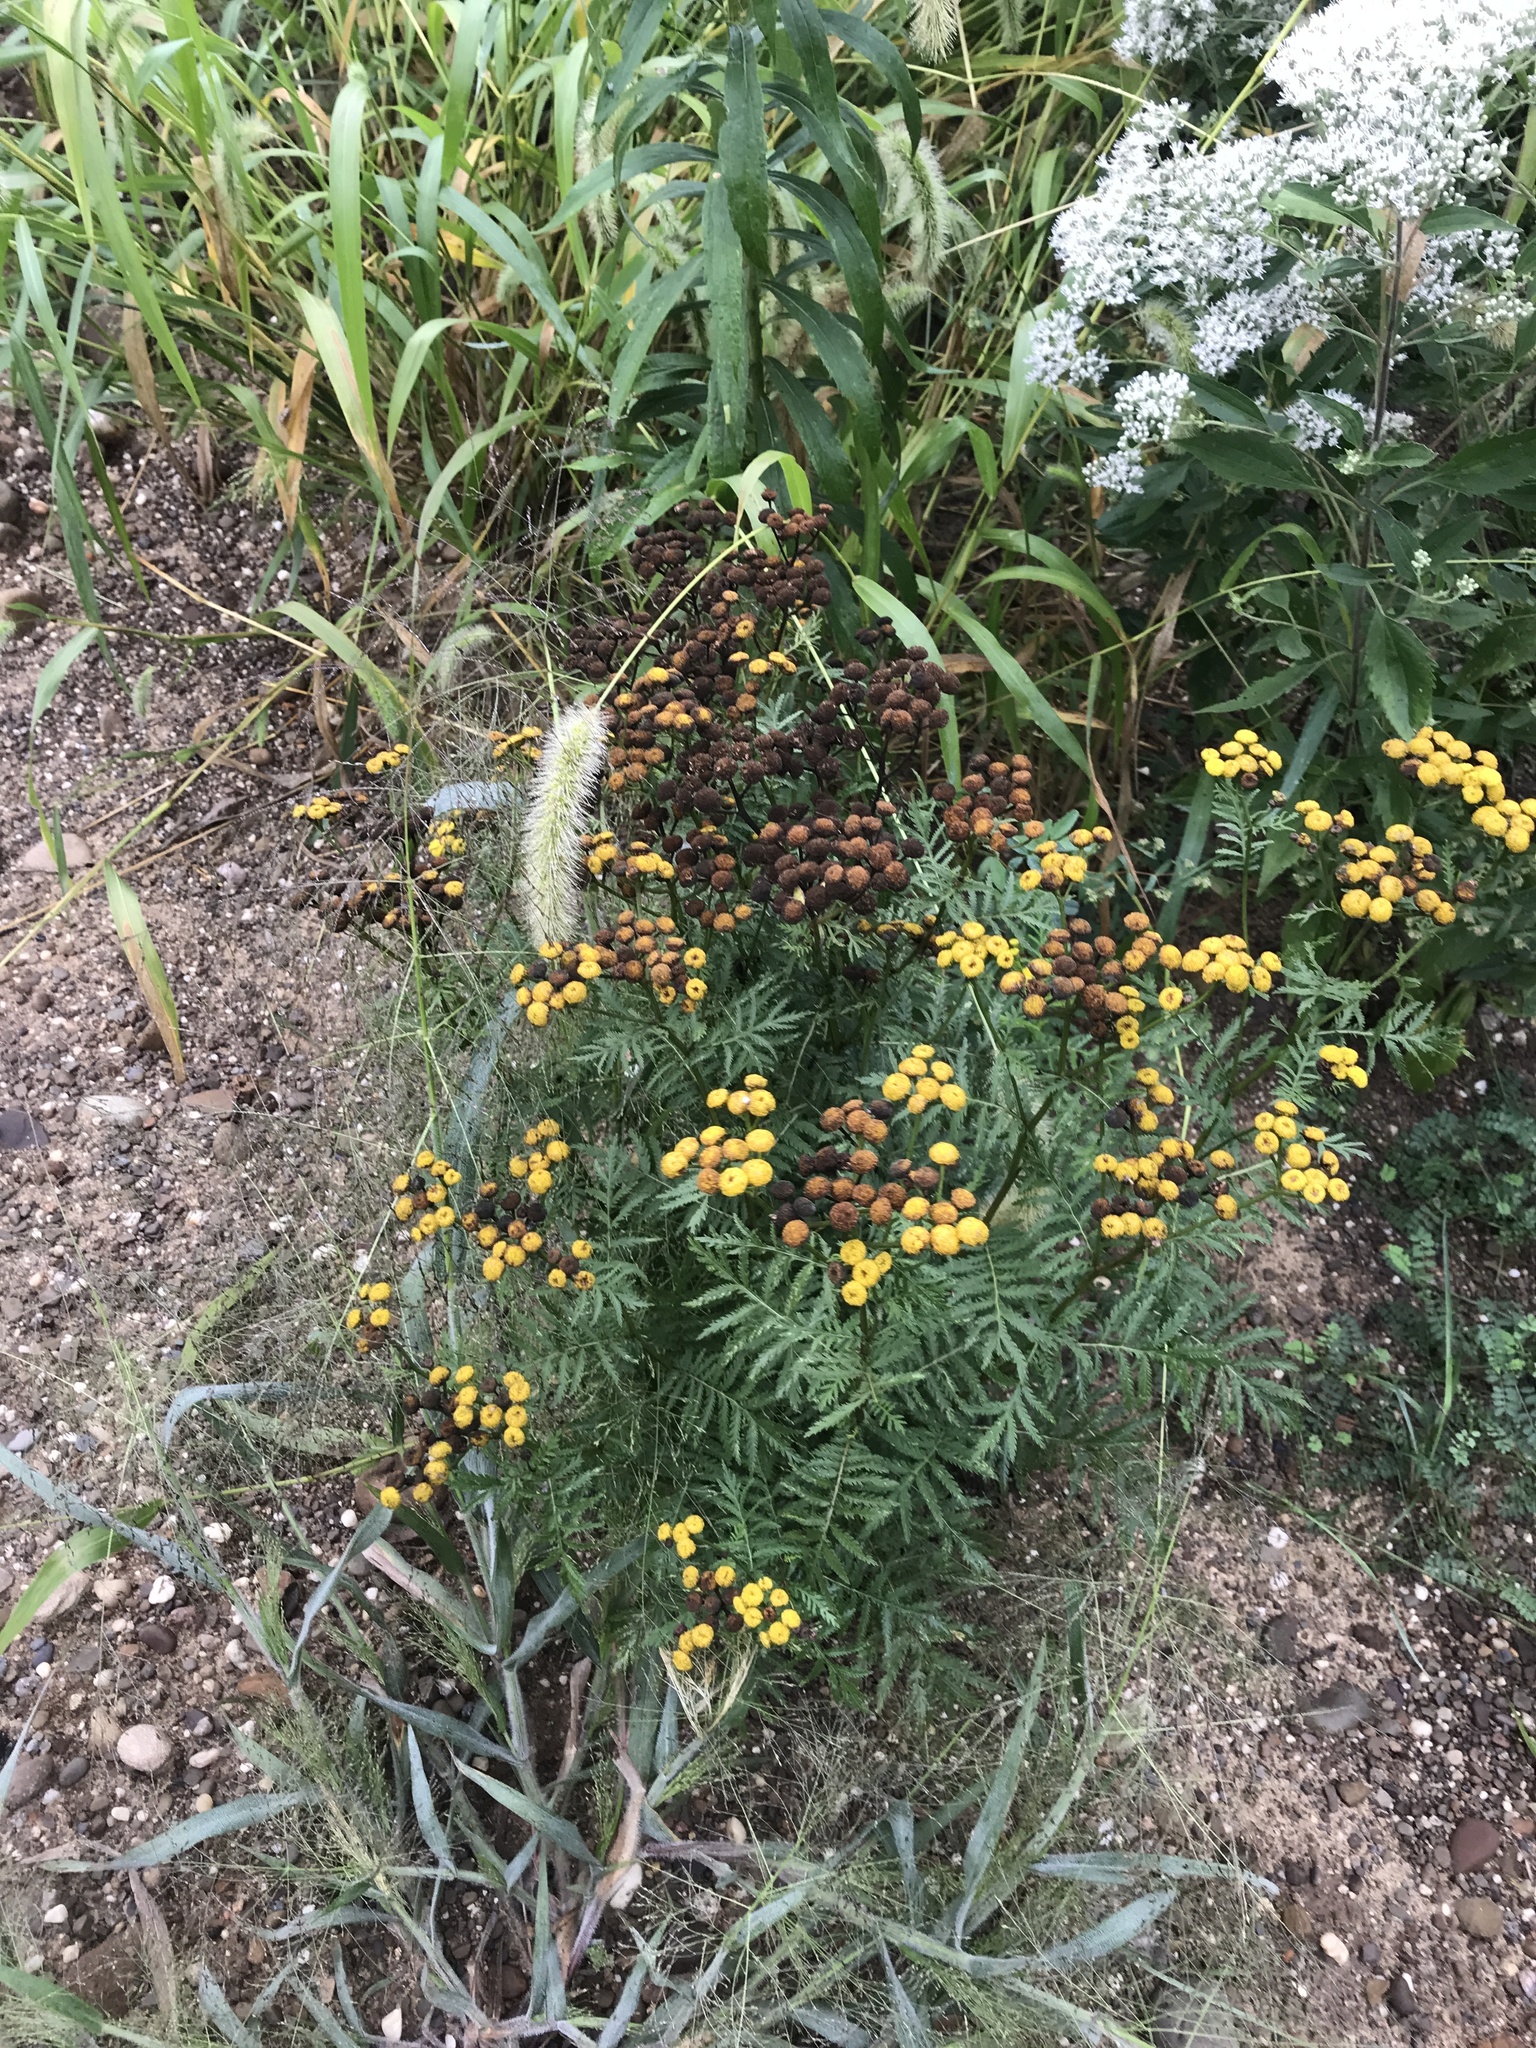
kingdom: Plantae
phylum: Tracheophyta
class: Magnoliopsida
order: Asterales
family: Asteraceae
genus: Tanacetum
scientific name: Tanacetum vulgare
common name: Common tansy
